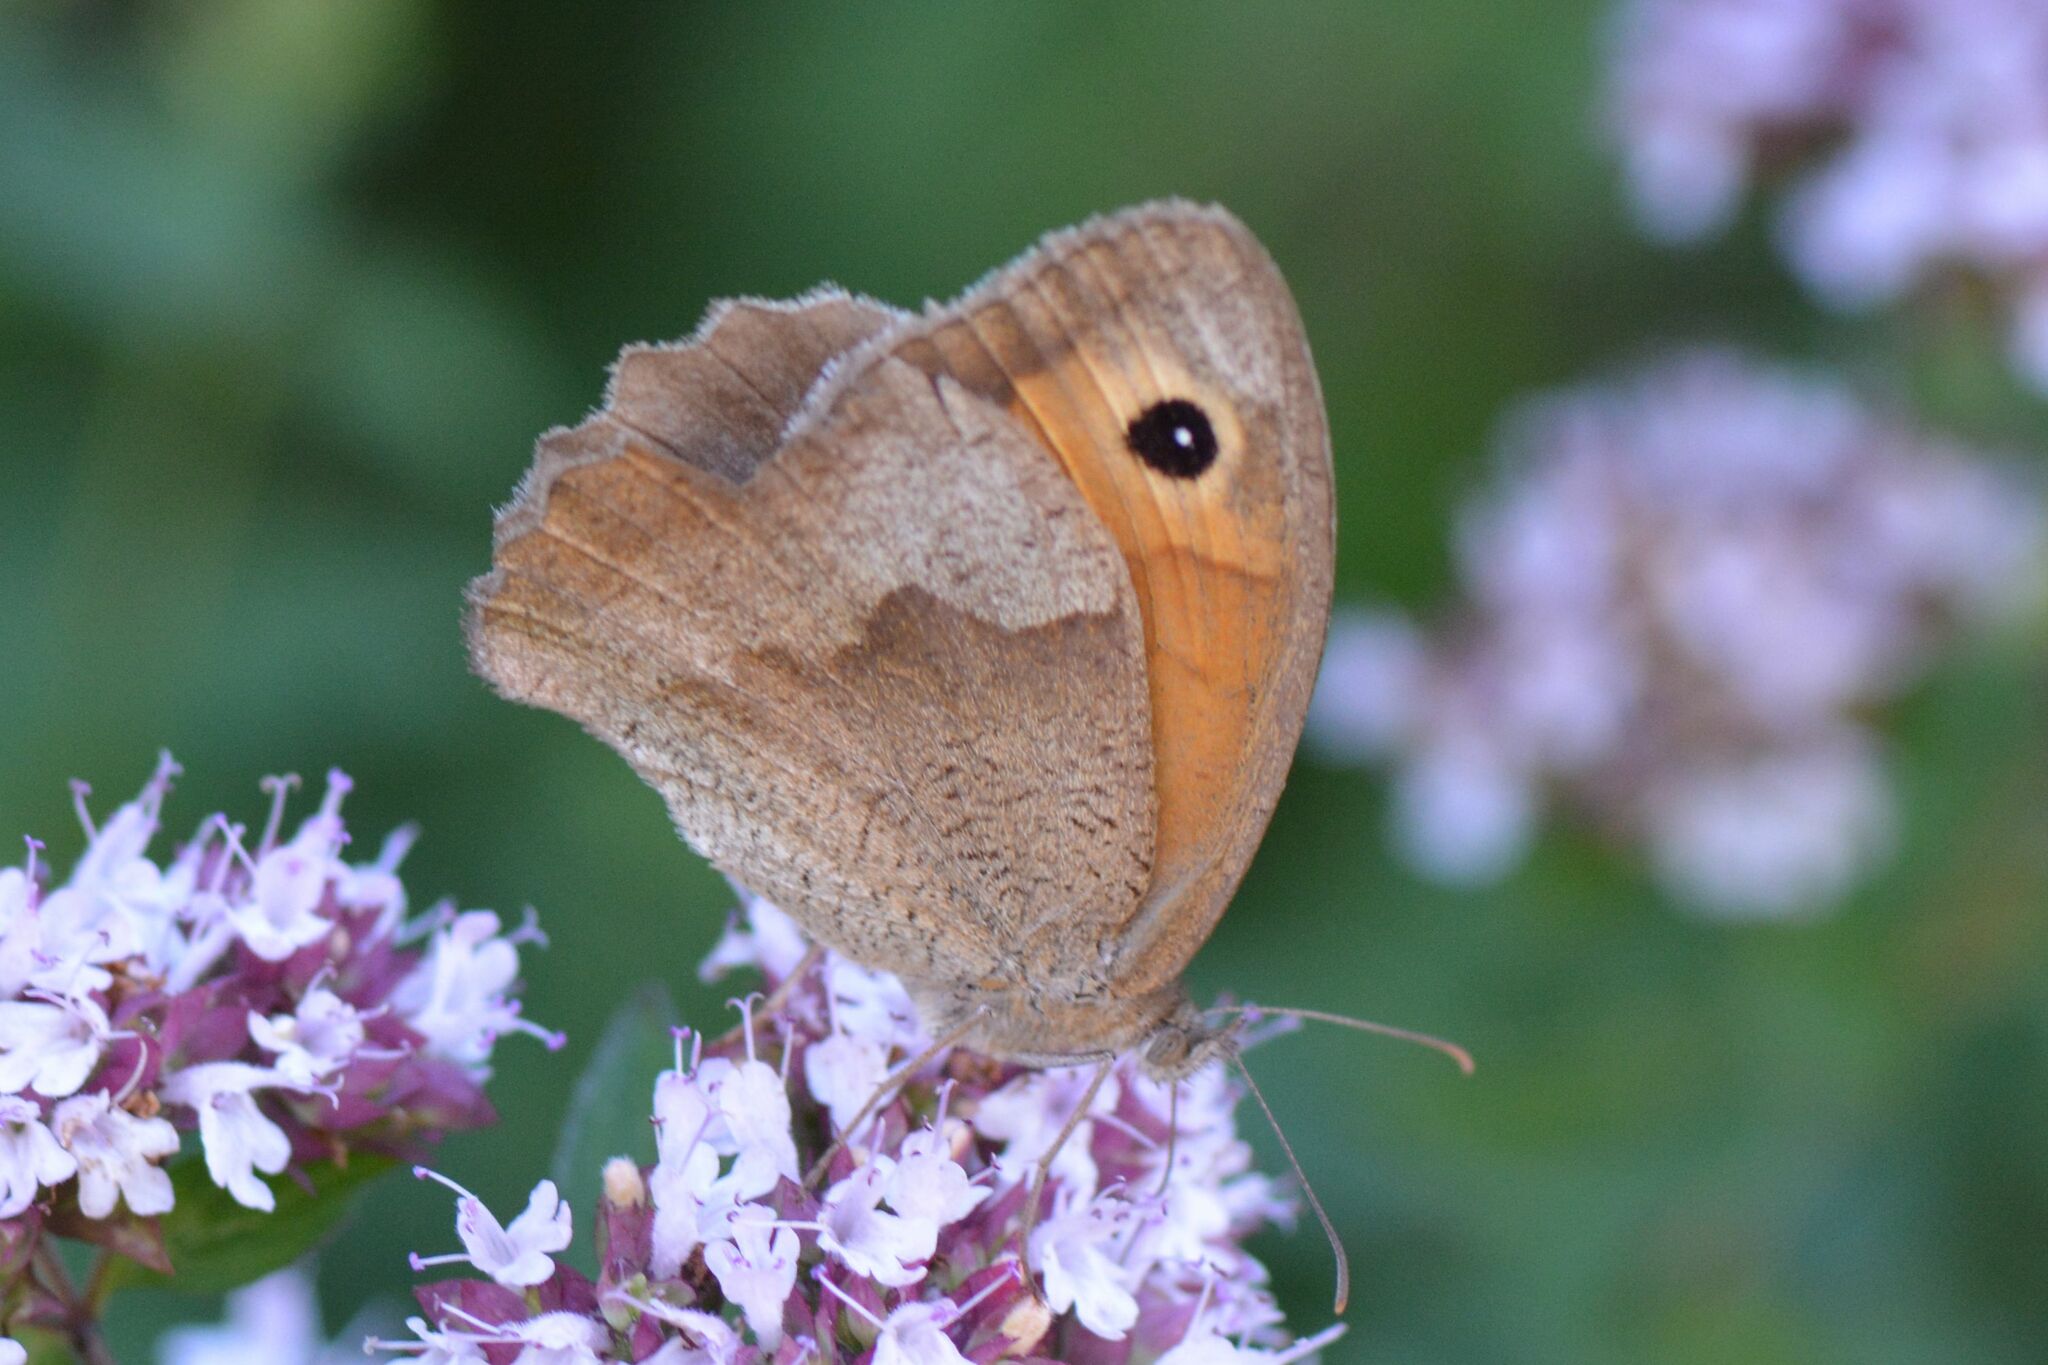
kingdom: Animalia
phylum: Arthropoda
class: Insecta
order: Lepidoptera
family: Nymphalidae
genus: Maniola
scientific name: Maniola jurtina
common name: Meadow brown
